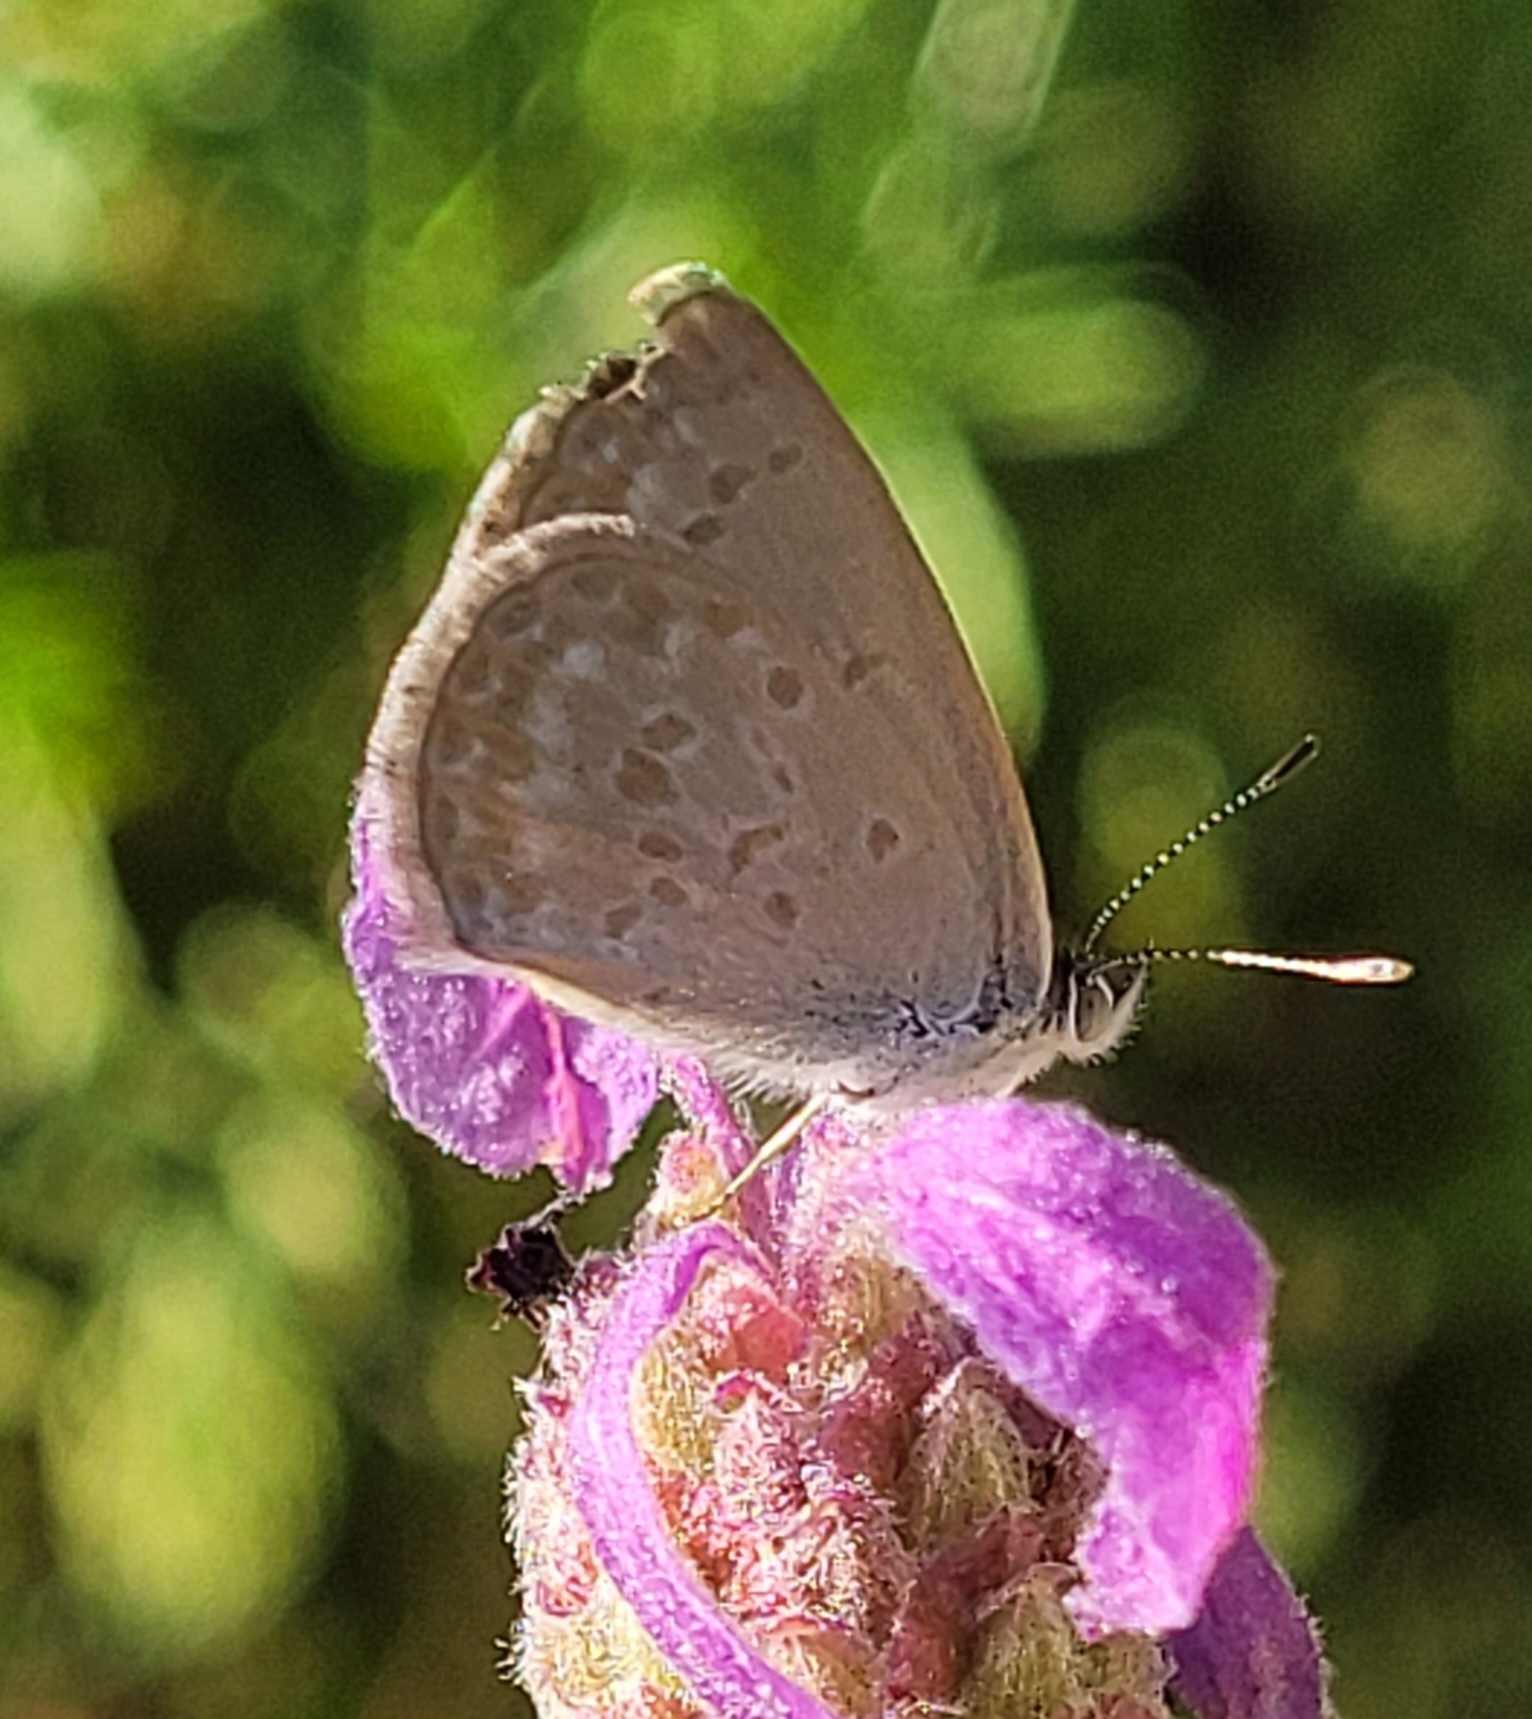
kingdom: Animalia
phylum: Arthropoda
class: Insecta
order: Lepidoptera
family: Lycaenidae
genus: Zizina
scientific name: Zizina otis
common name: Lesser grass blue
